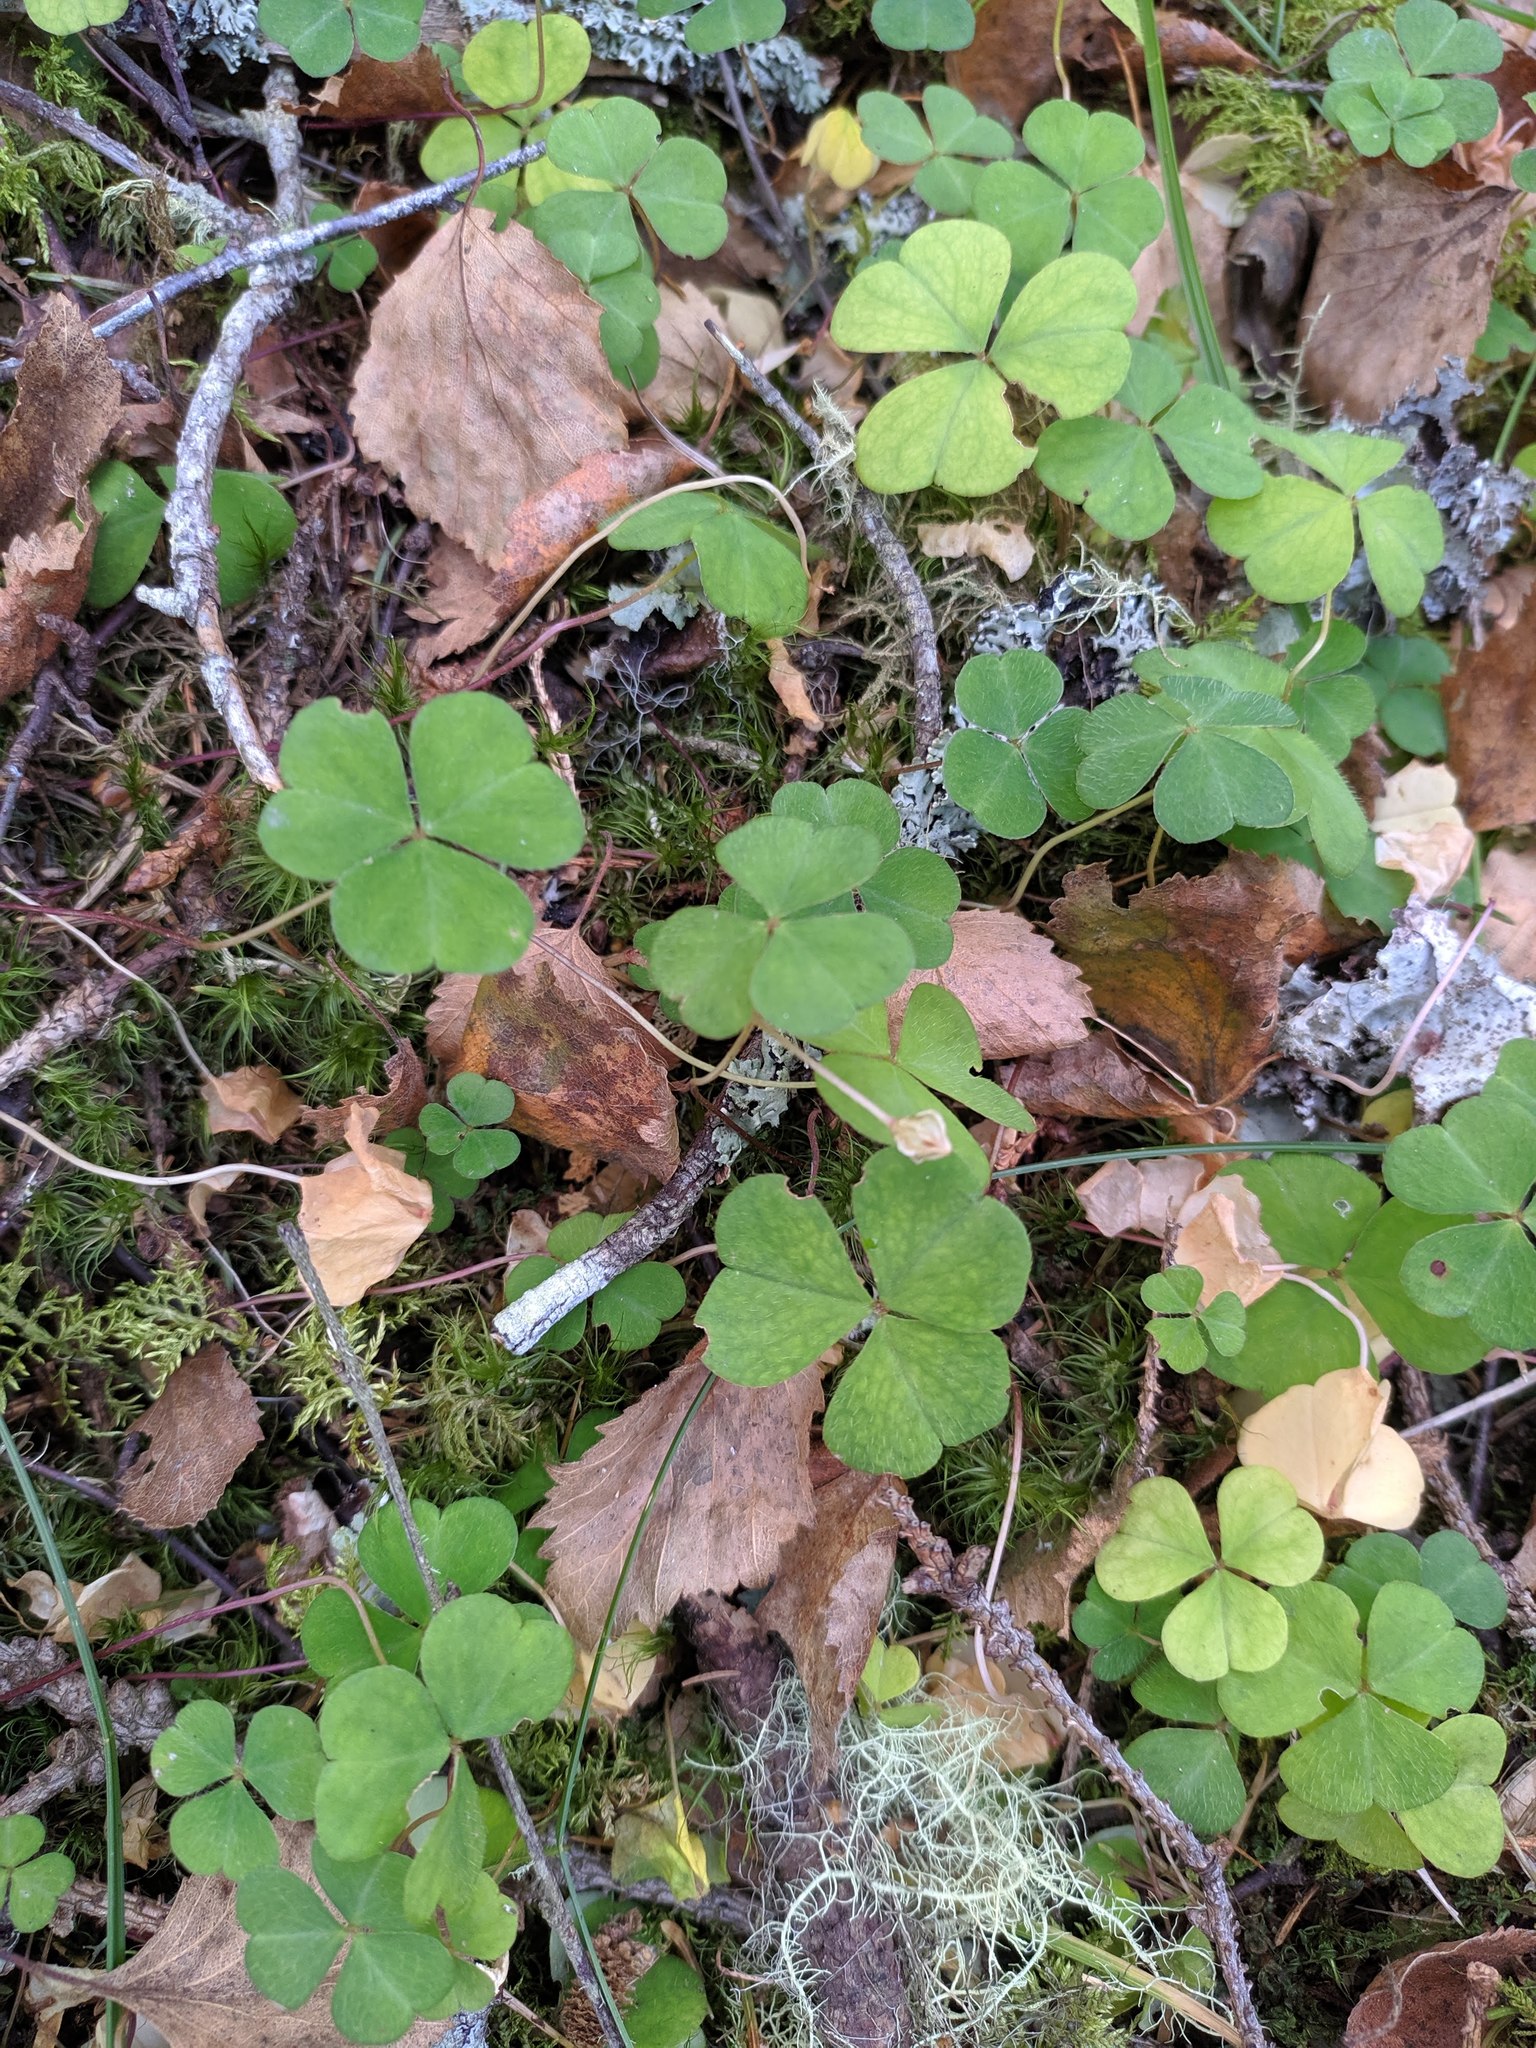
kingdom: Plantae
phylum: Tracheophyta
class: Magnoliopsida
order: Oxalidales
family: Oxalidaceae
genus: Oxalis
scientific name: Oxalis acetosella
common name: Wood-sorrel
